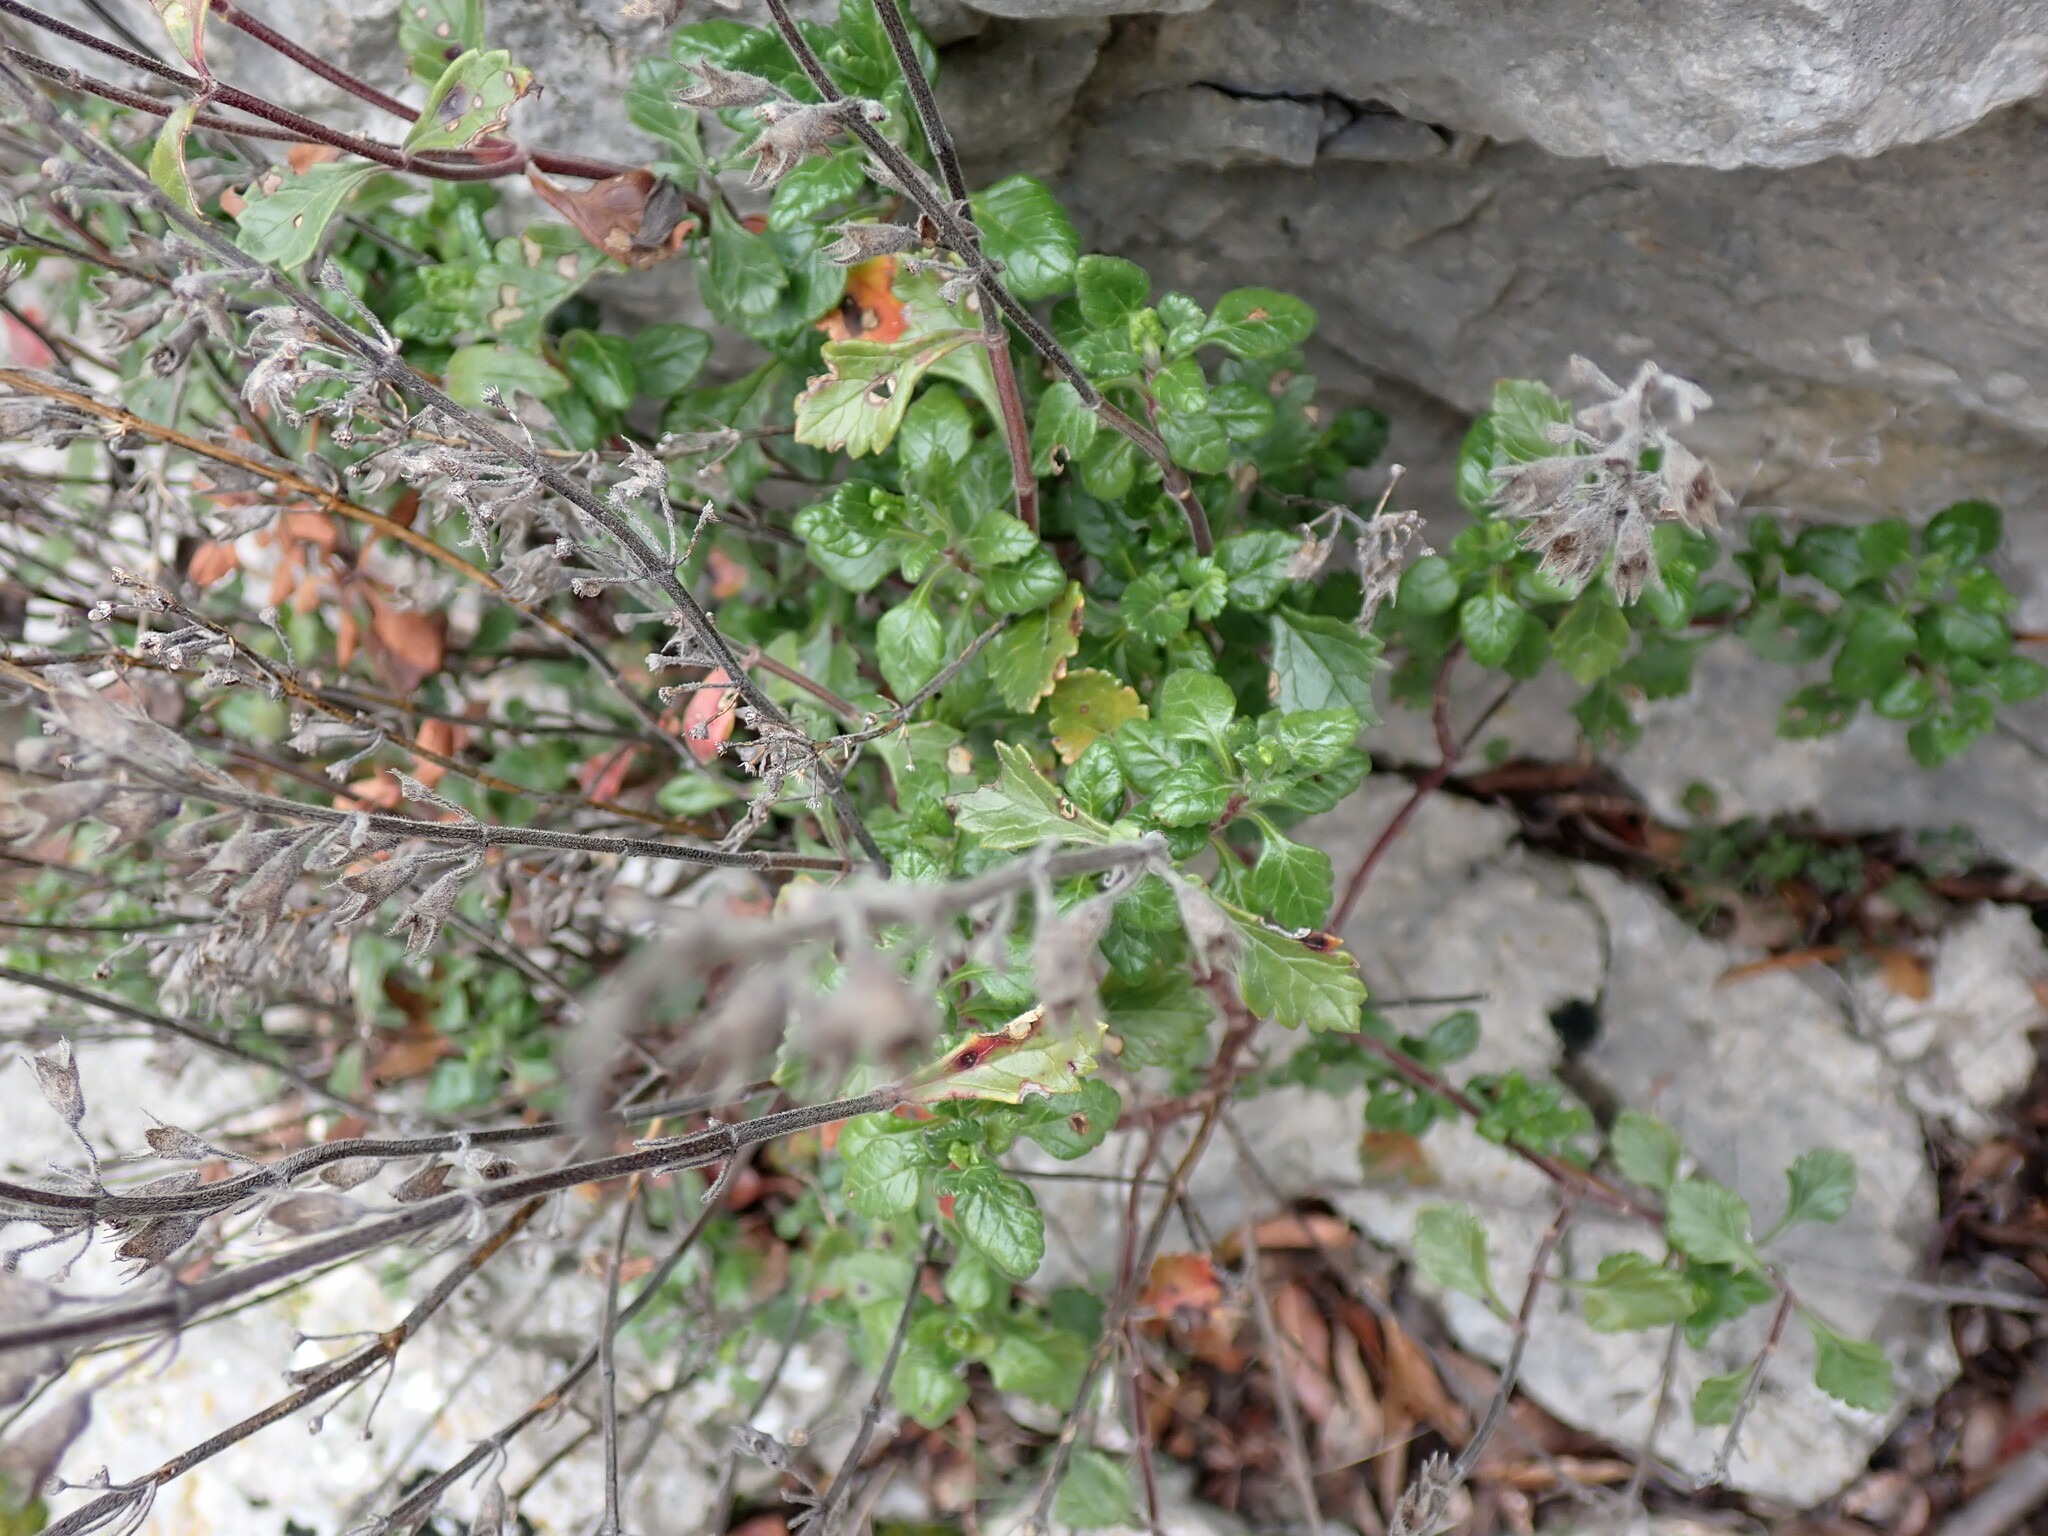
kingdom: Plantae
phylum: Tracheophyta
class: Magnoliopsida
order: Lamiales
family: Lamiaceae
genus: Teucrium
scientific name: Teucrium flavum
